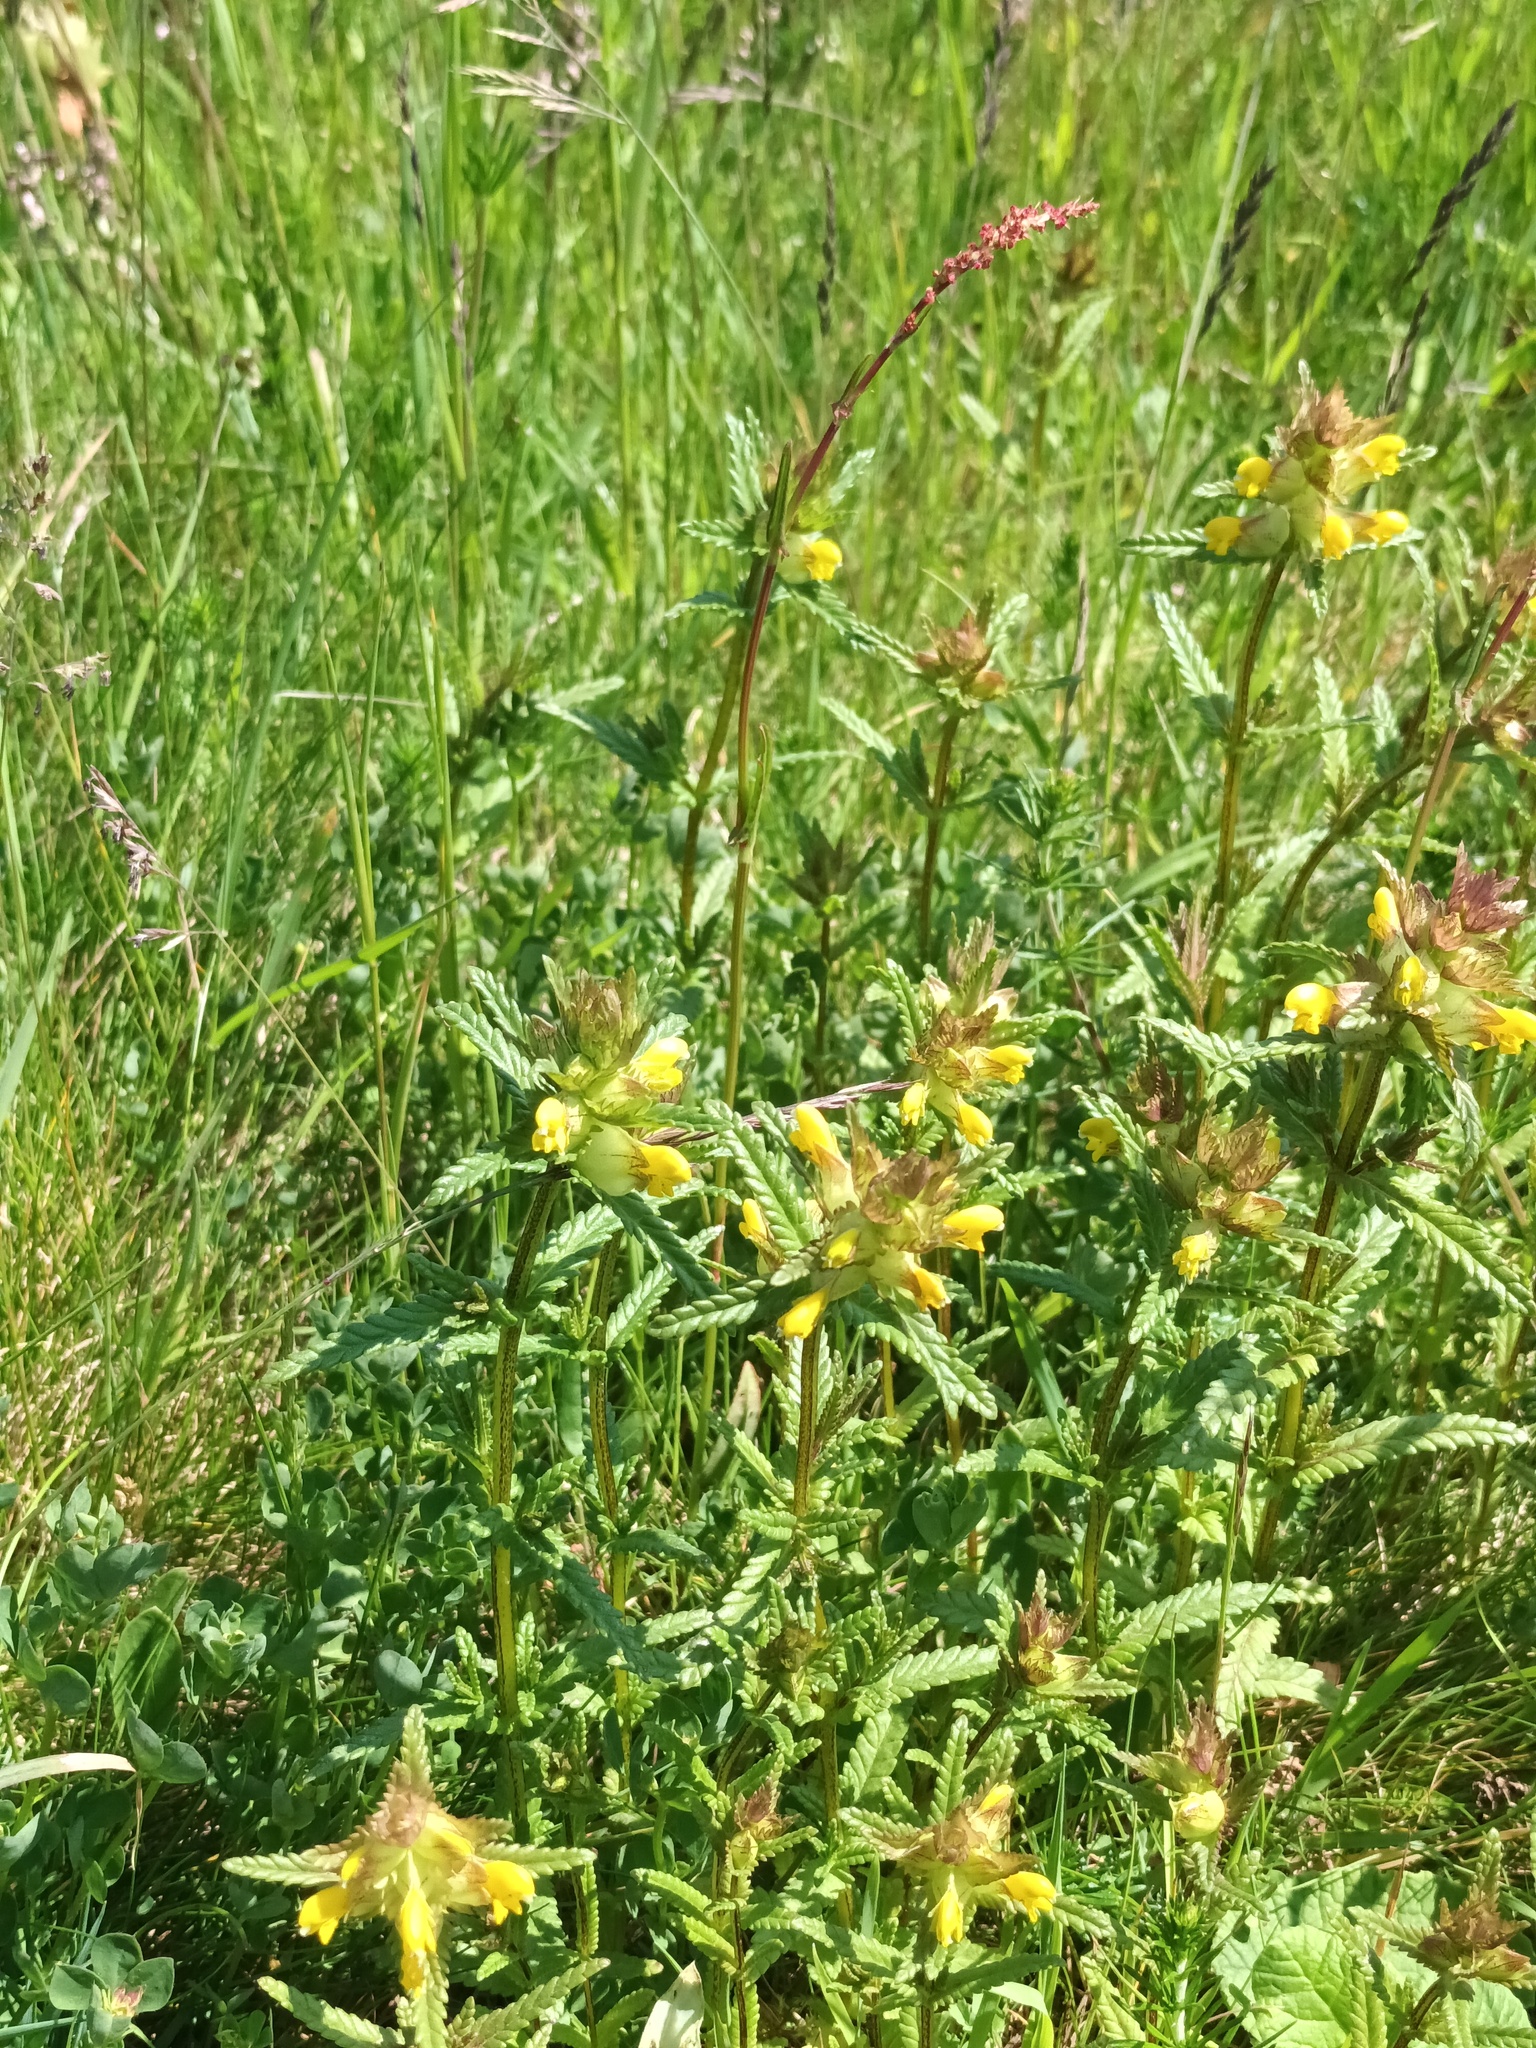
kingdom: Plantae
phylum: Tracheophyta
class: Magnoliopsida
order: Lamiales
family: Orobanchaceae
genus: Rhinanthus
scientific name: Rhinanthus minor
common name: Yellow-rattle
